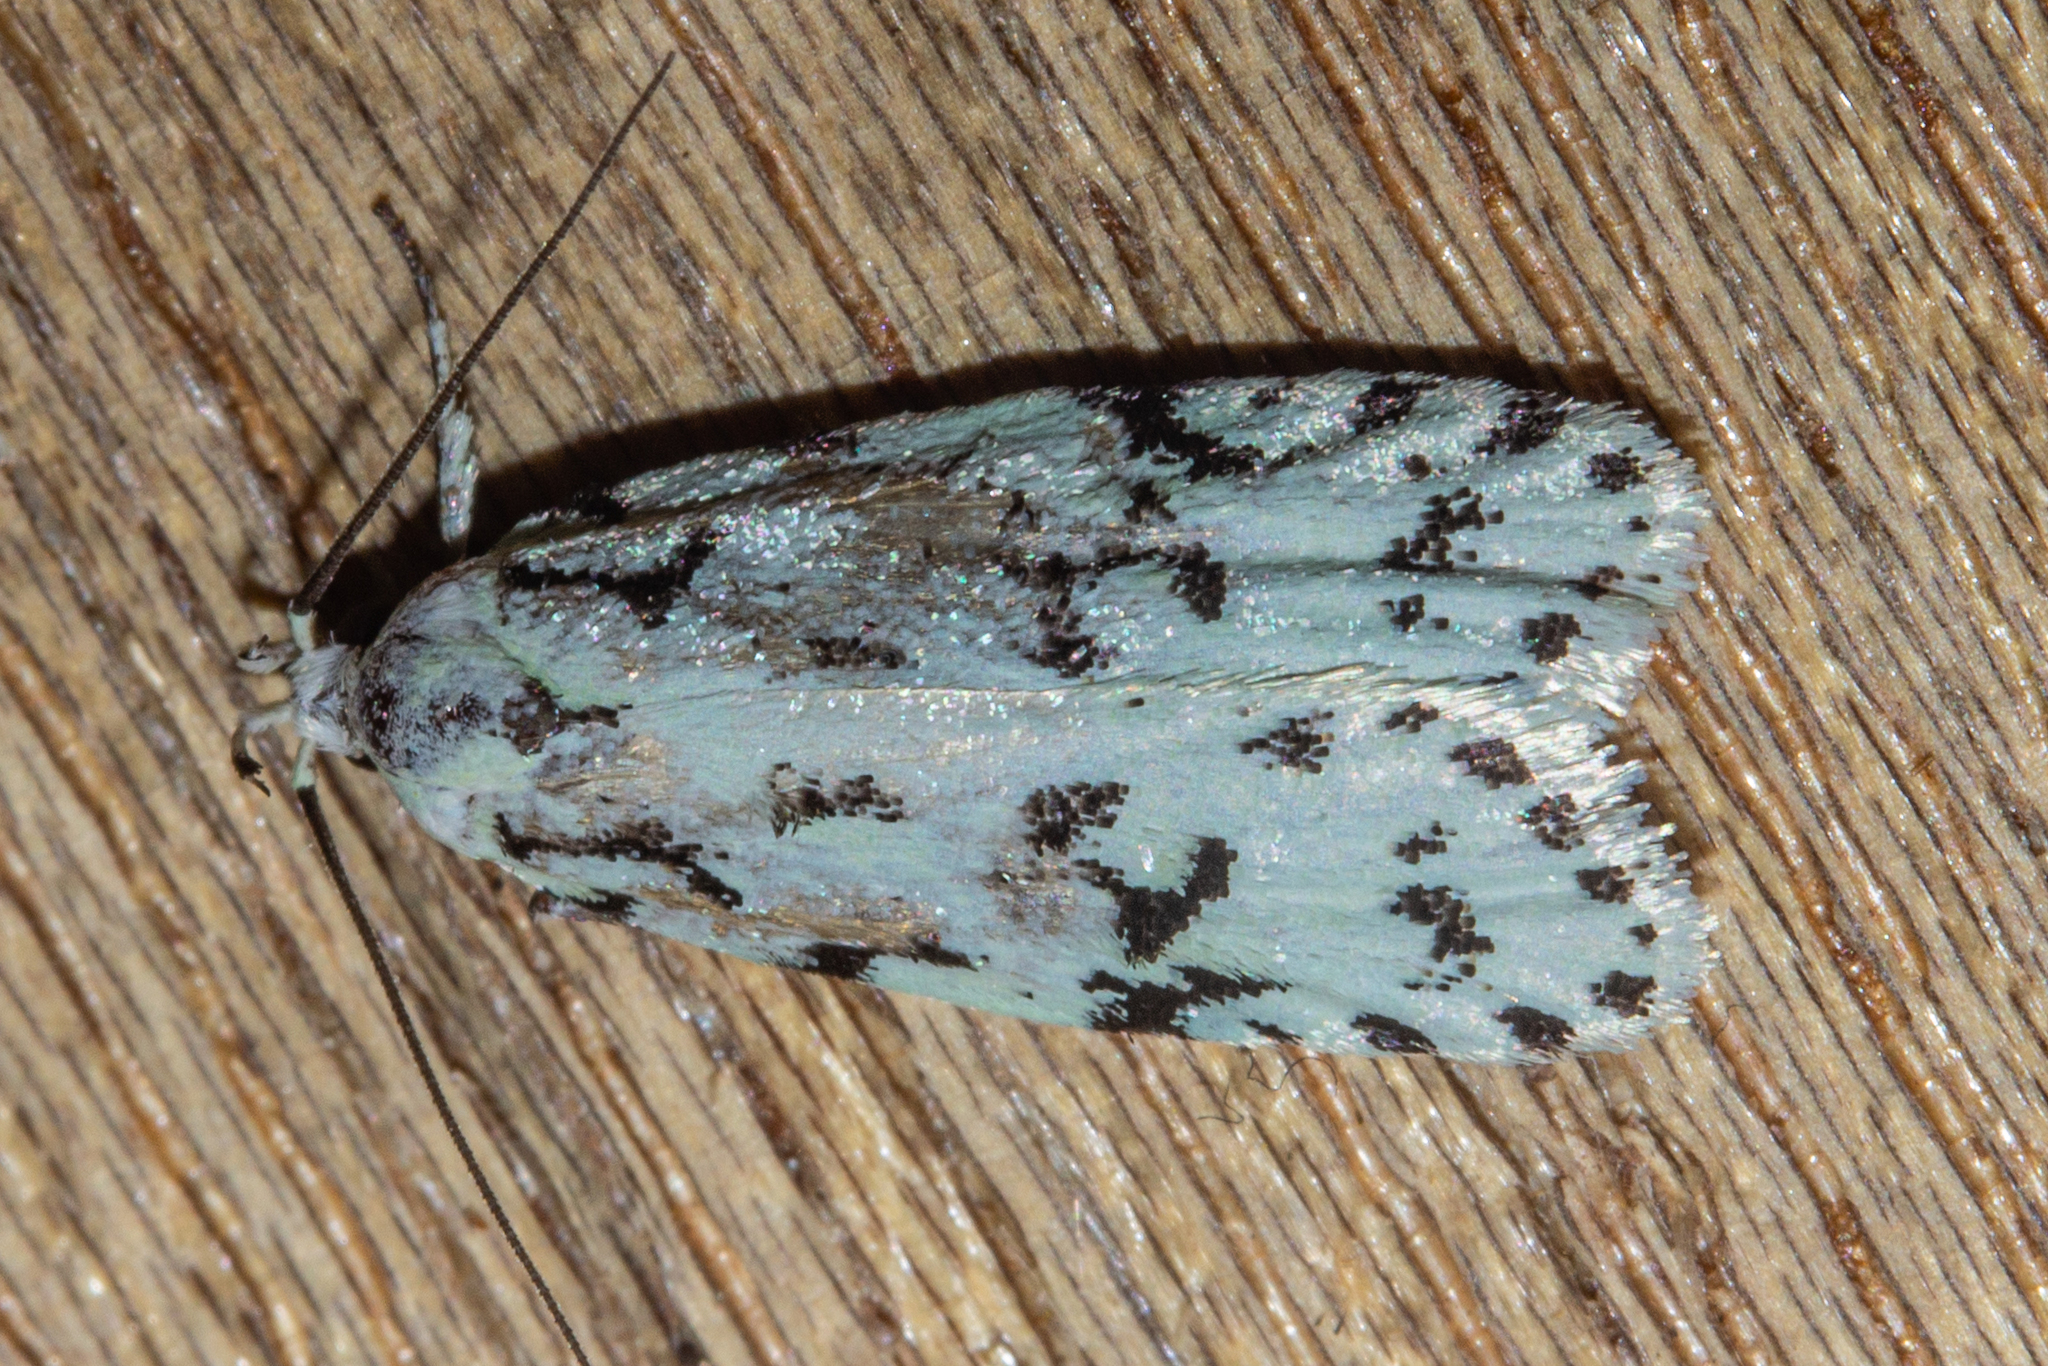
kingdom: Animalia
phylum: Arthropoda
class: Insecta
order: Lepidoptera
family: Oecophoridae
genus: Izatha
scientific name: Izatha huttoni
